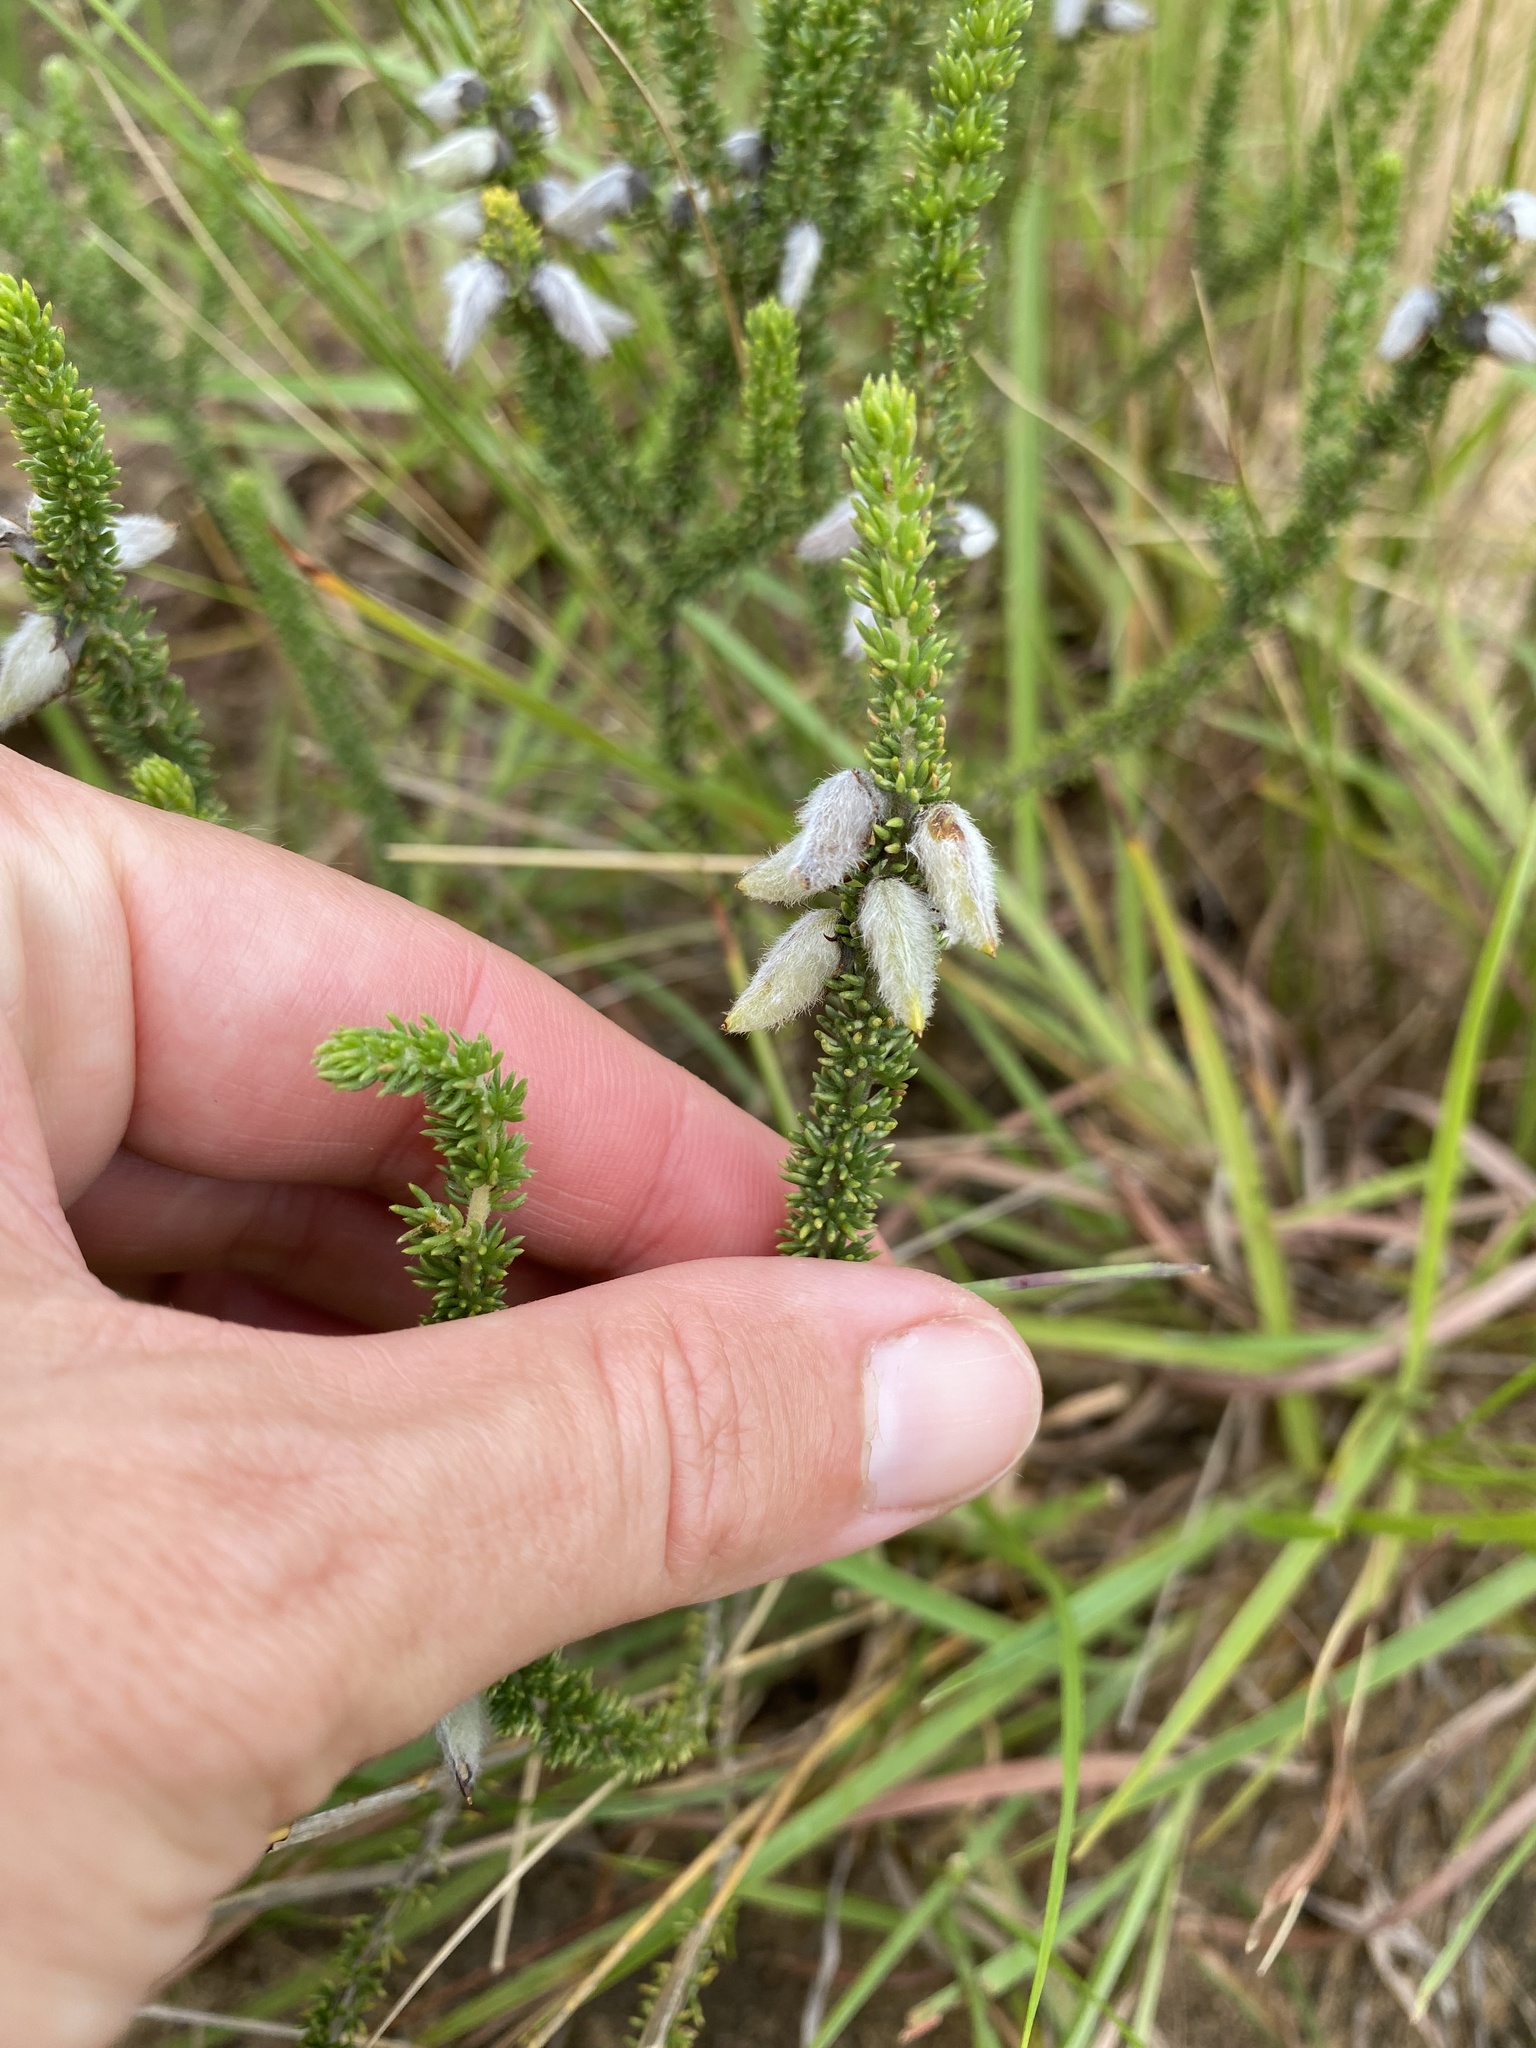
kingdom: Plantae
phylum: Tracheophyta
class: Magnoliopsida
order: Fabales
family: Fabaceae
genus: Aspalathus
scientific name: Aspalathus chortophila
